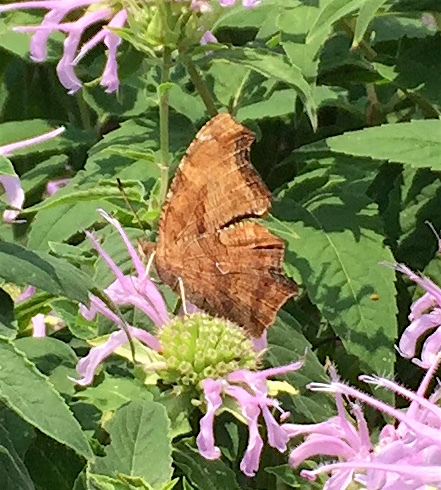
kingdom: Animalia
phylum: Arthropoda
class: Insecta
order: Lepidoptera
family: Nymphalidae
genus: Polygonia
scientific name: Polygonia comma
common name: Eastern comma
